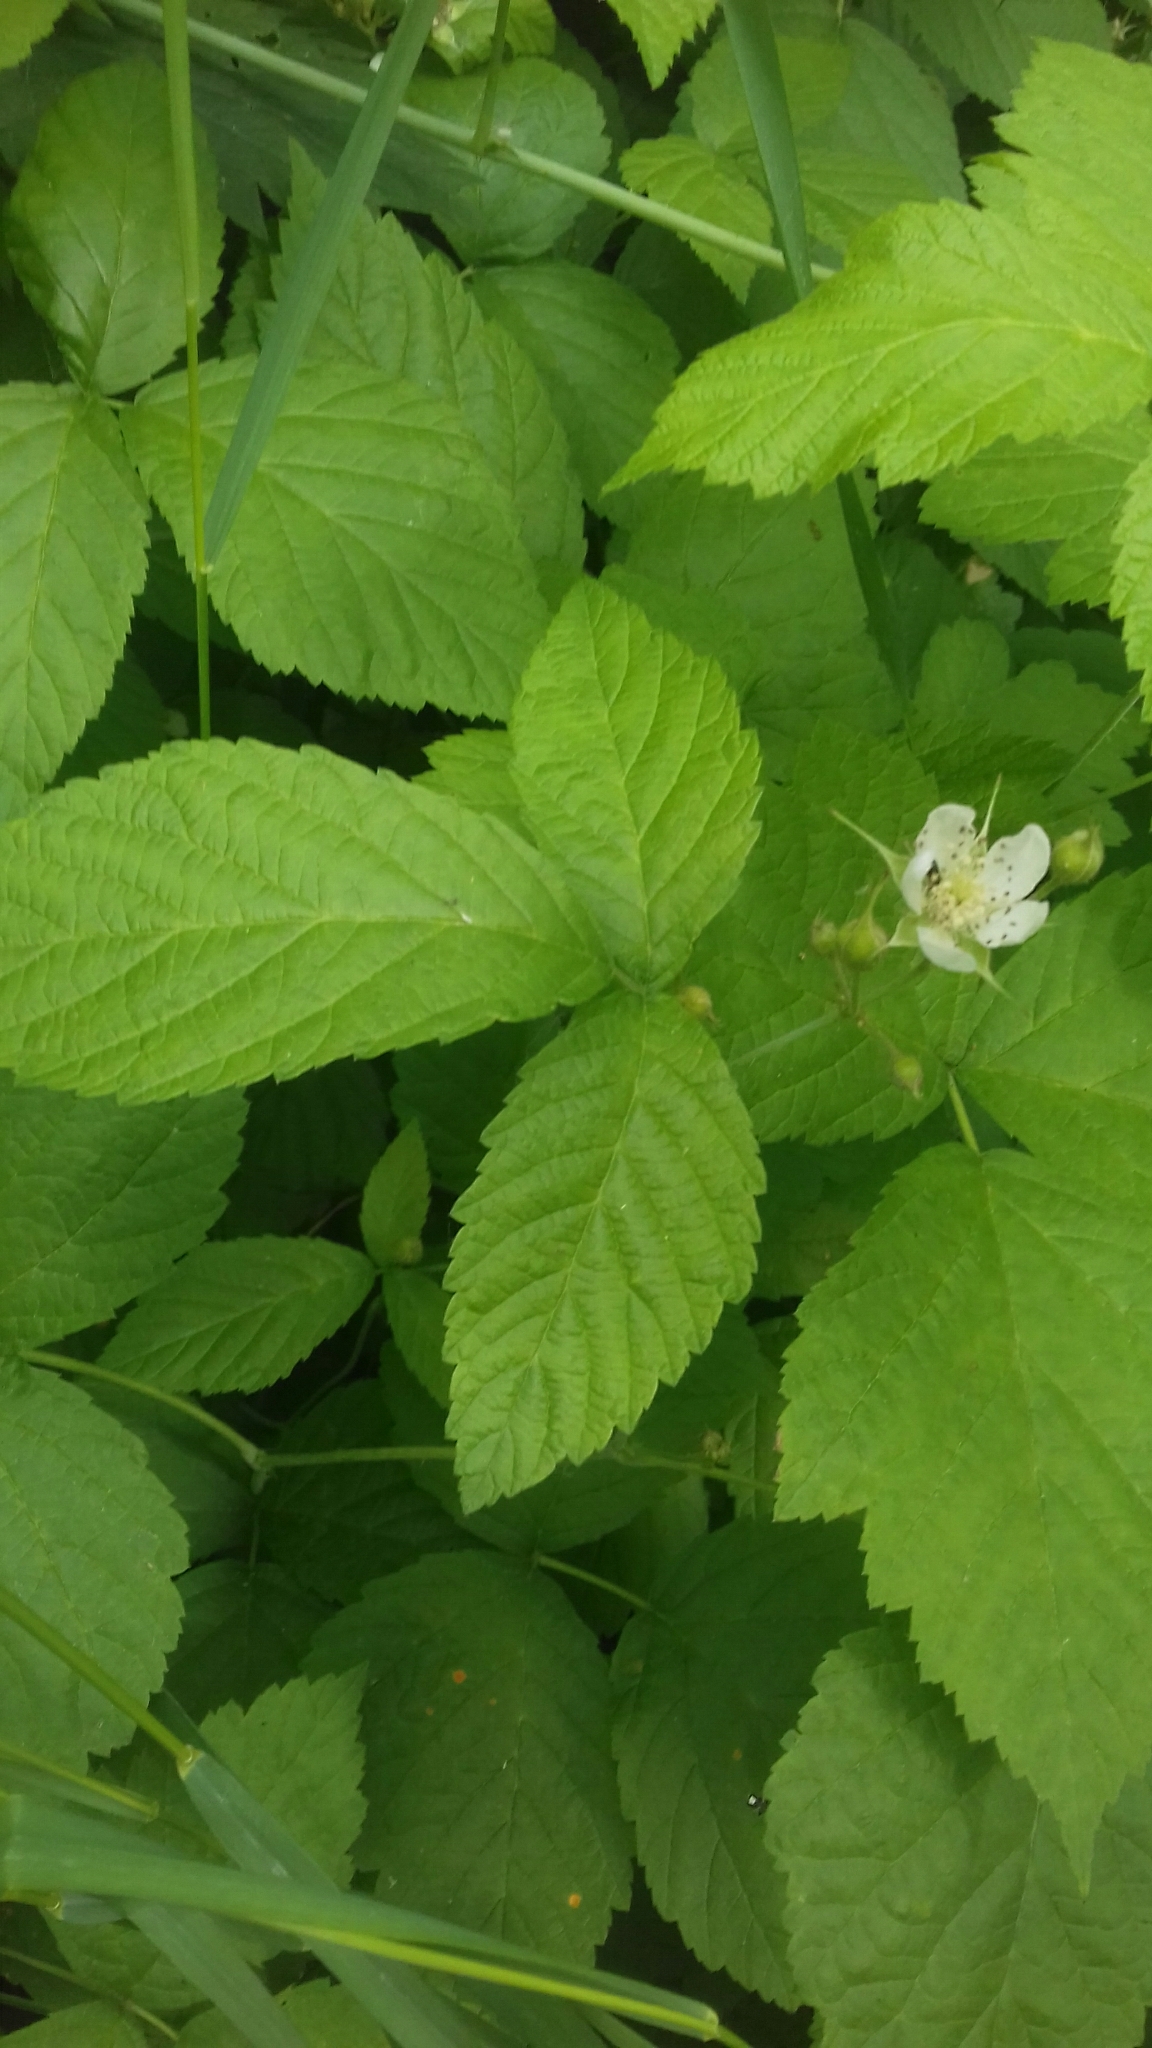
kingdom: Plantae
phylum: Tracheophyta
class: Magnoliopsida
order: Rosales
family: Rosaceae
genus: Rubus
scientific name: Rubus caesius
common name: Dewberry
